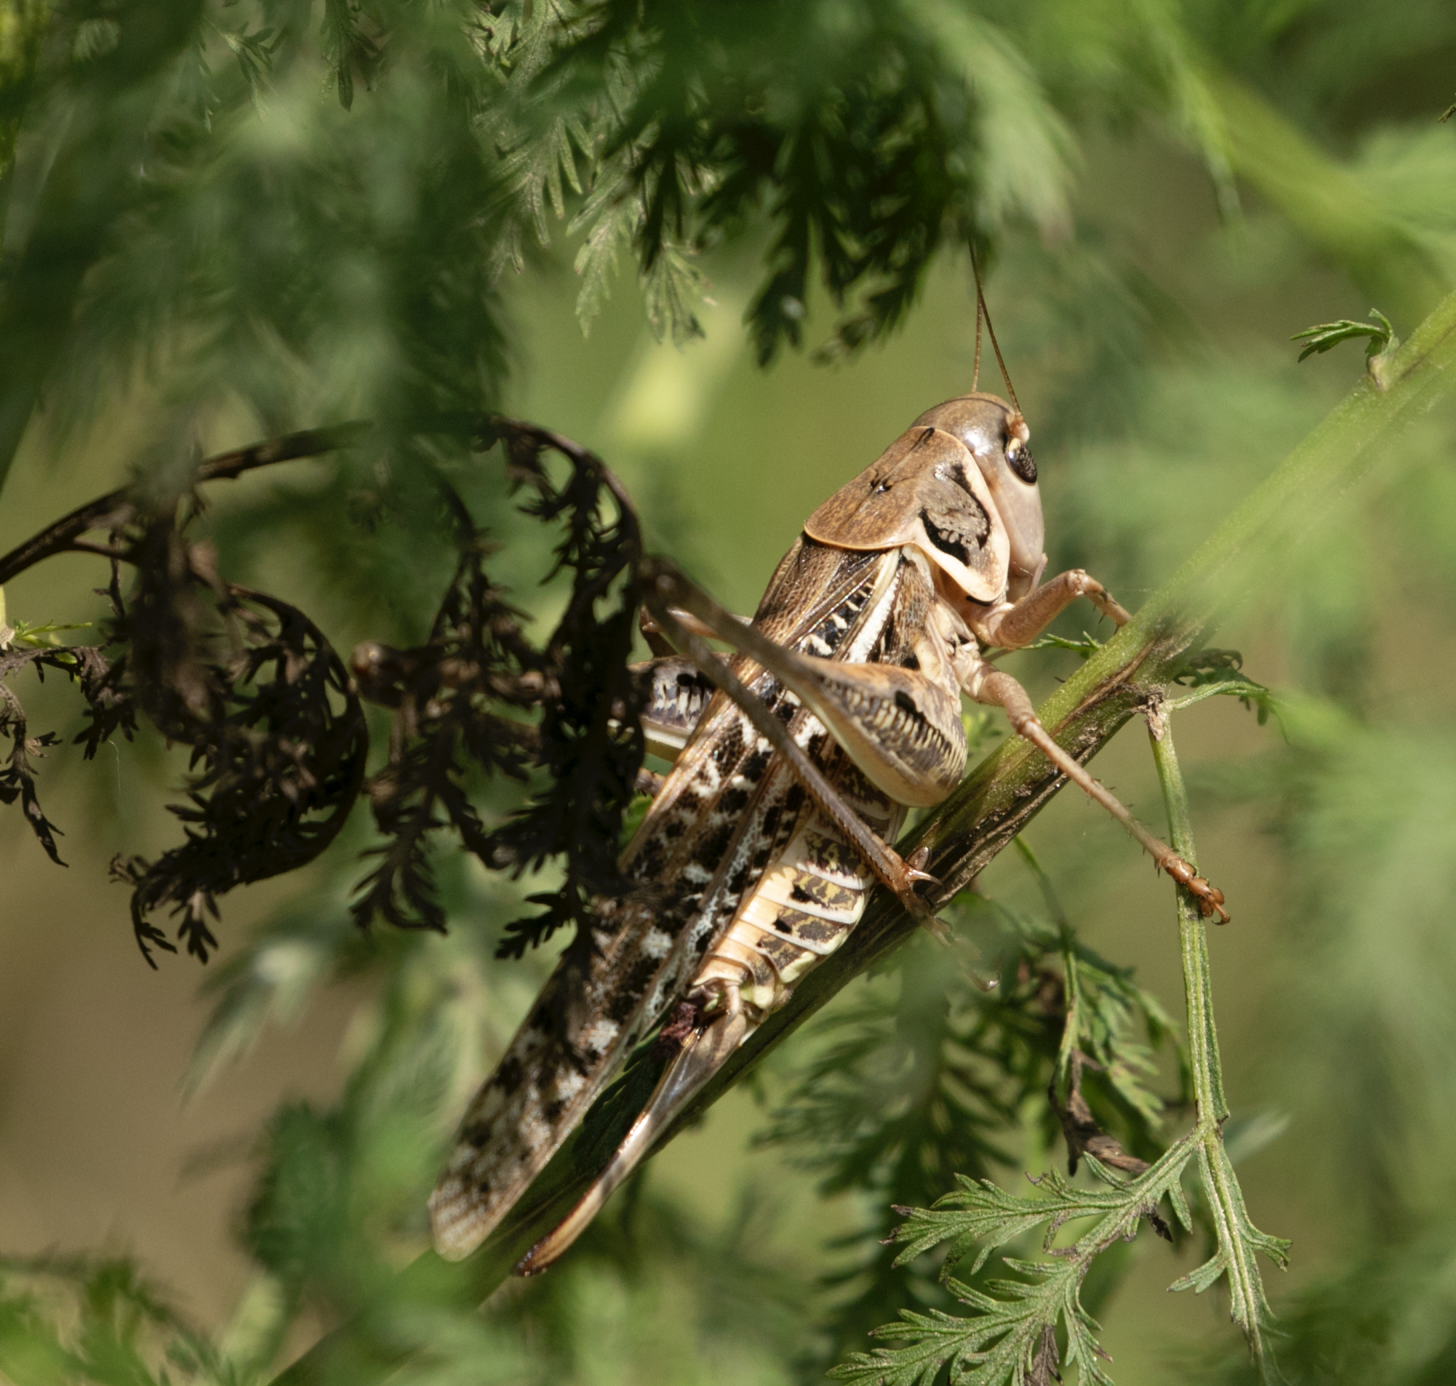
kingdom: Animalia
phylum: Arthropoda
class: Insecta
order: Orthoptera
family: Tettigoniidae
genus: Decticus
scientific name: Decticus albifrons
